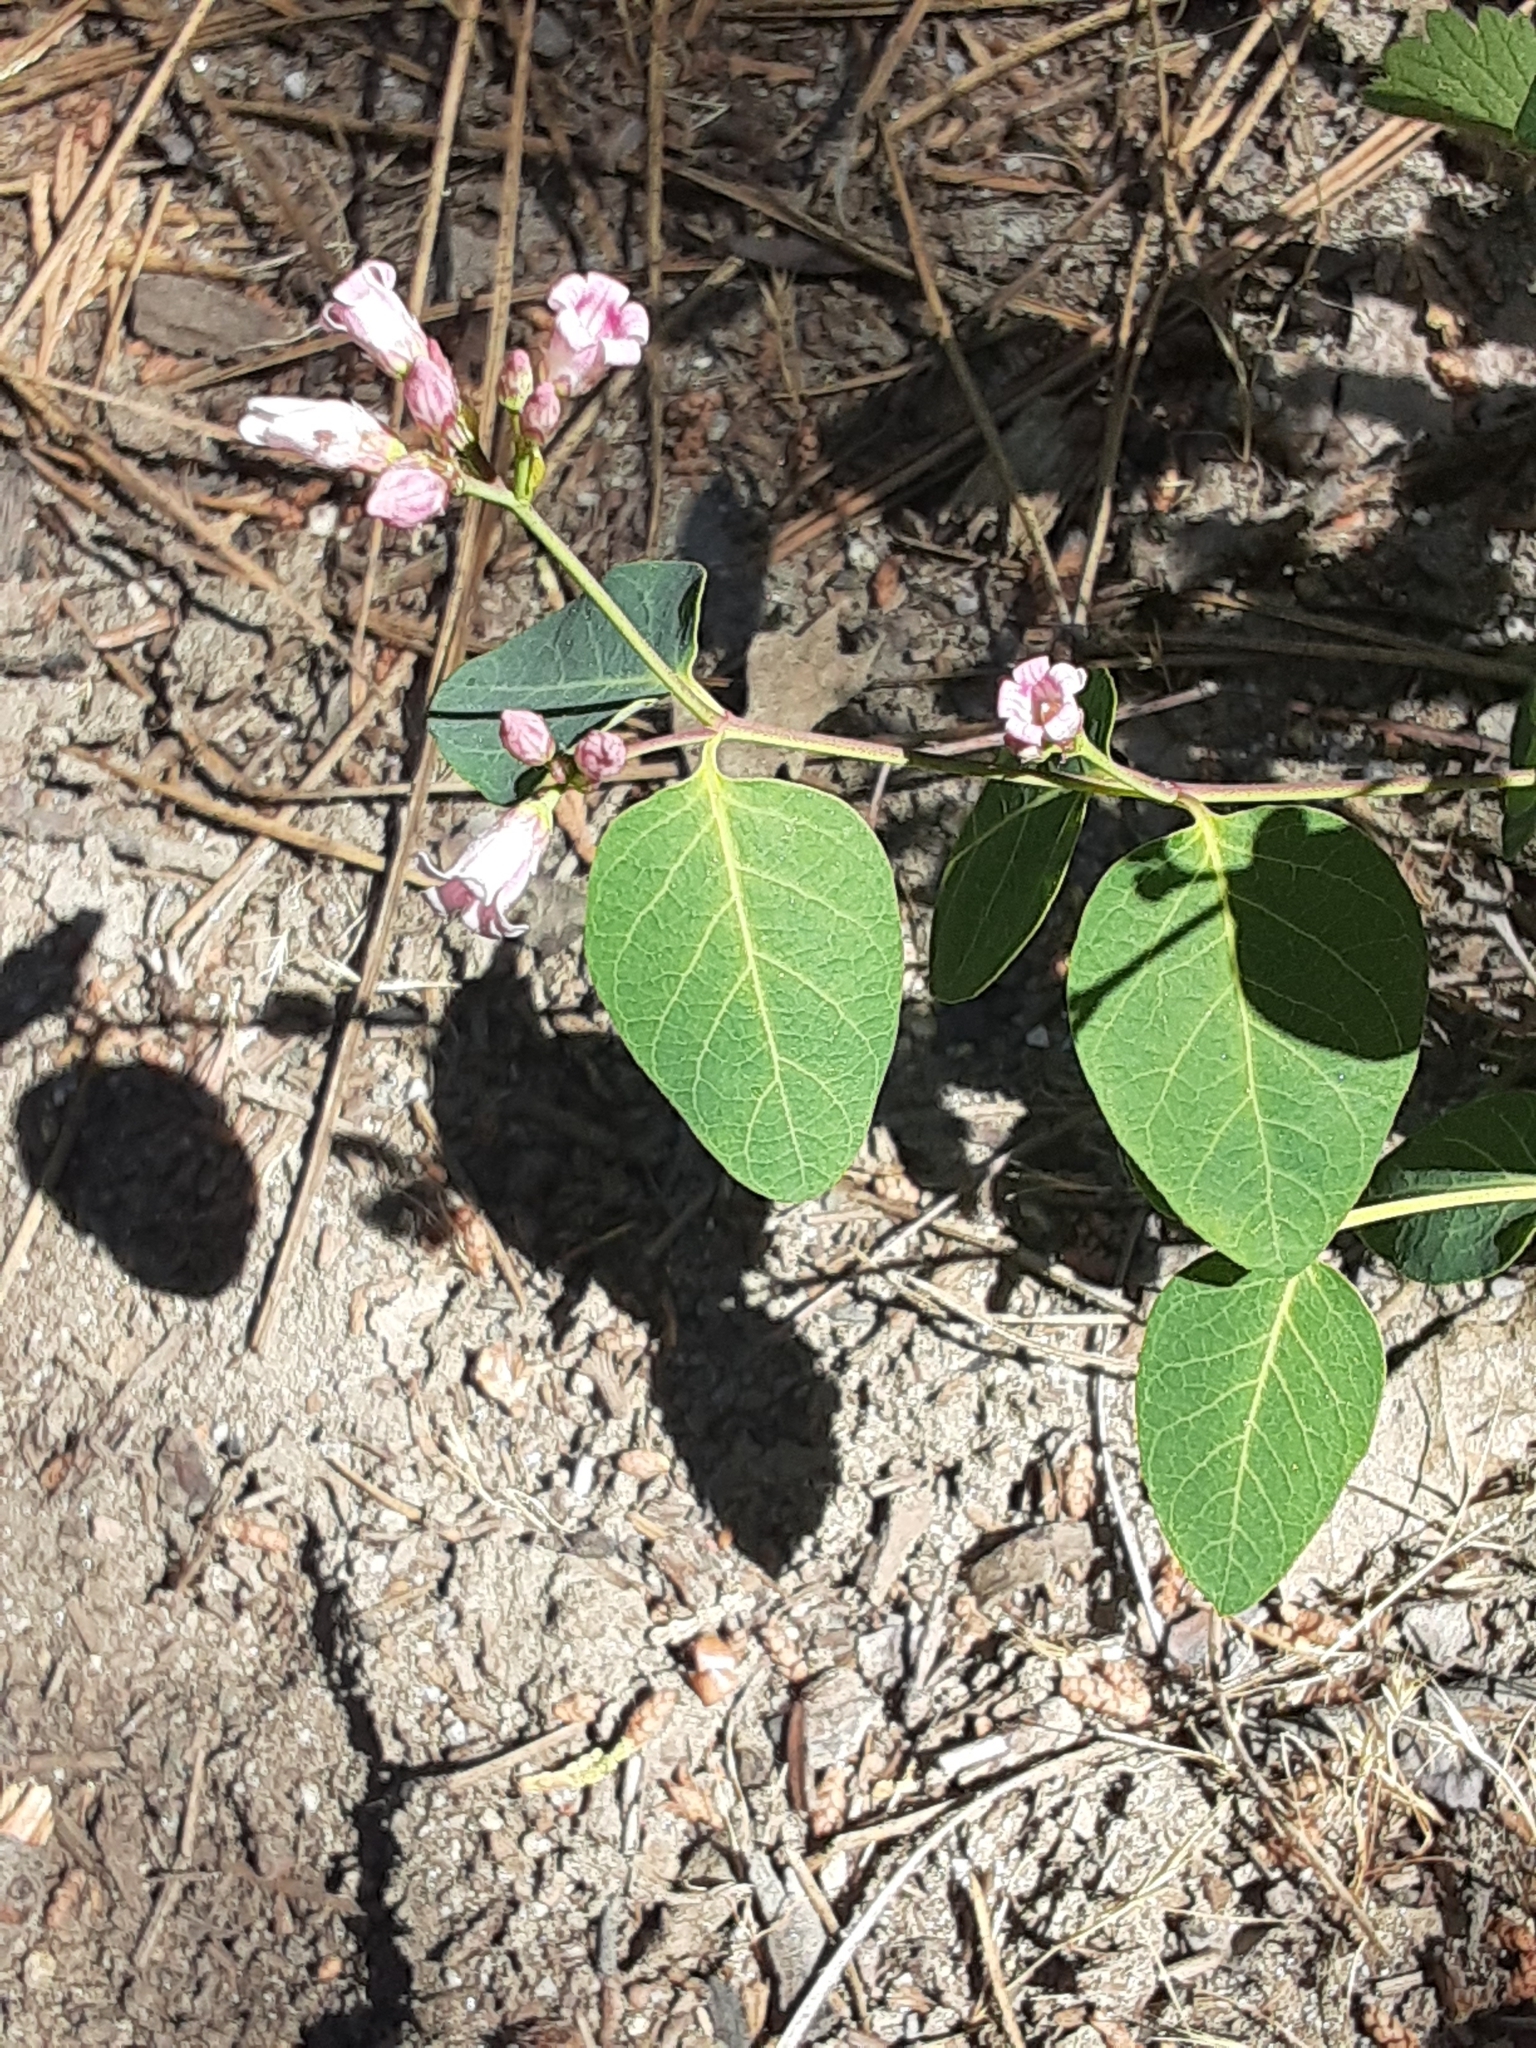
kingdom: Plantae
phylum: Tracheophyta
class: Magnoliopsida
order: Gentianales
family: Apocynaceae
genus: Apocynum
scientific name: Apocynum androsaemifolium
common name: Spreading dogbane
